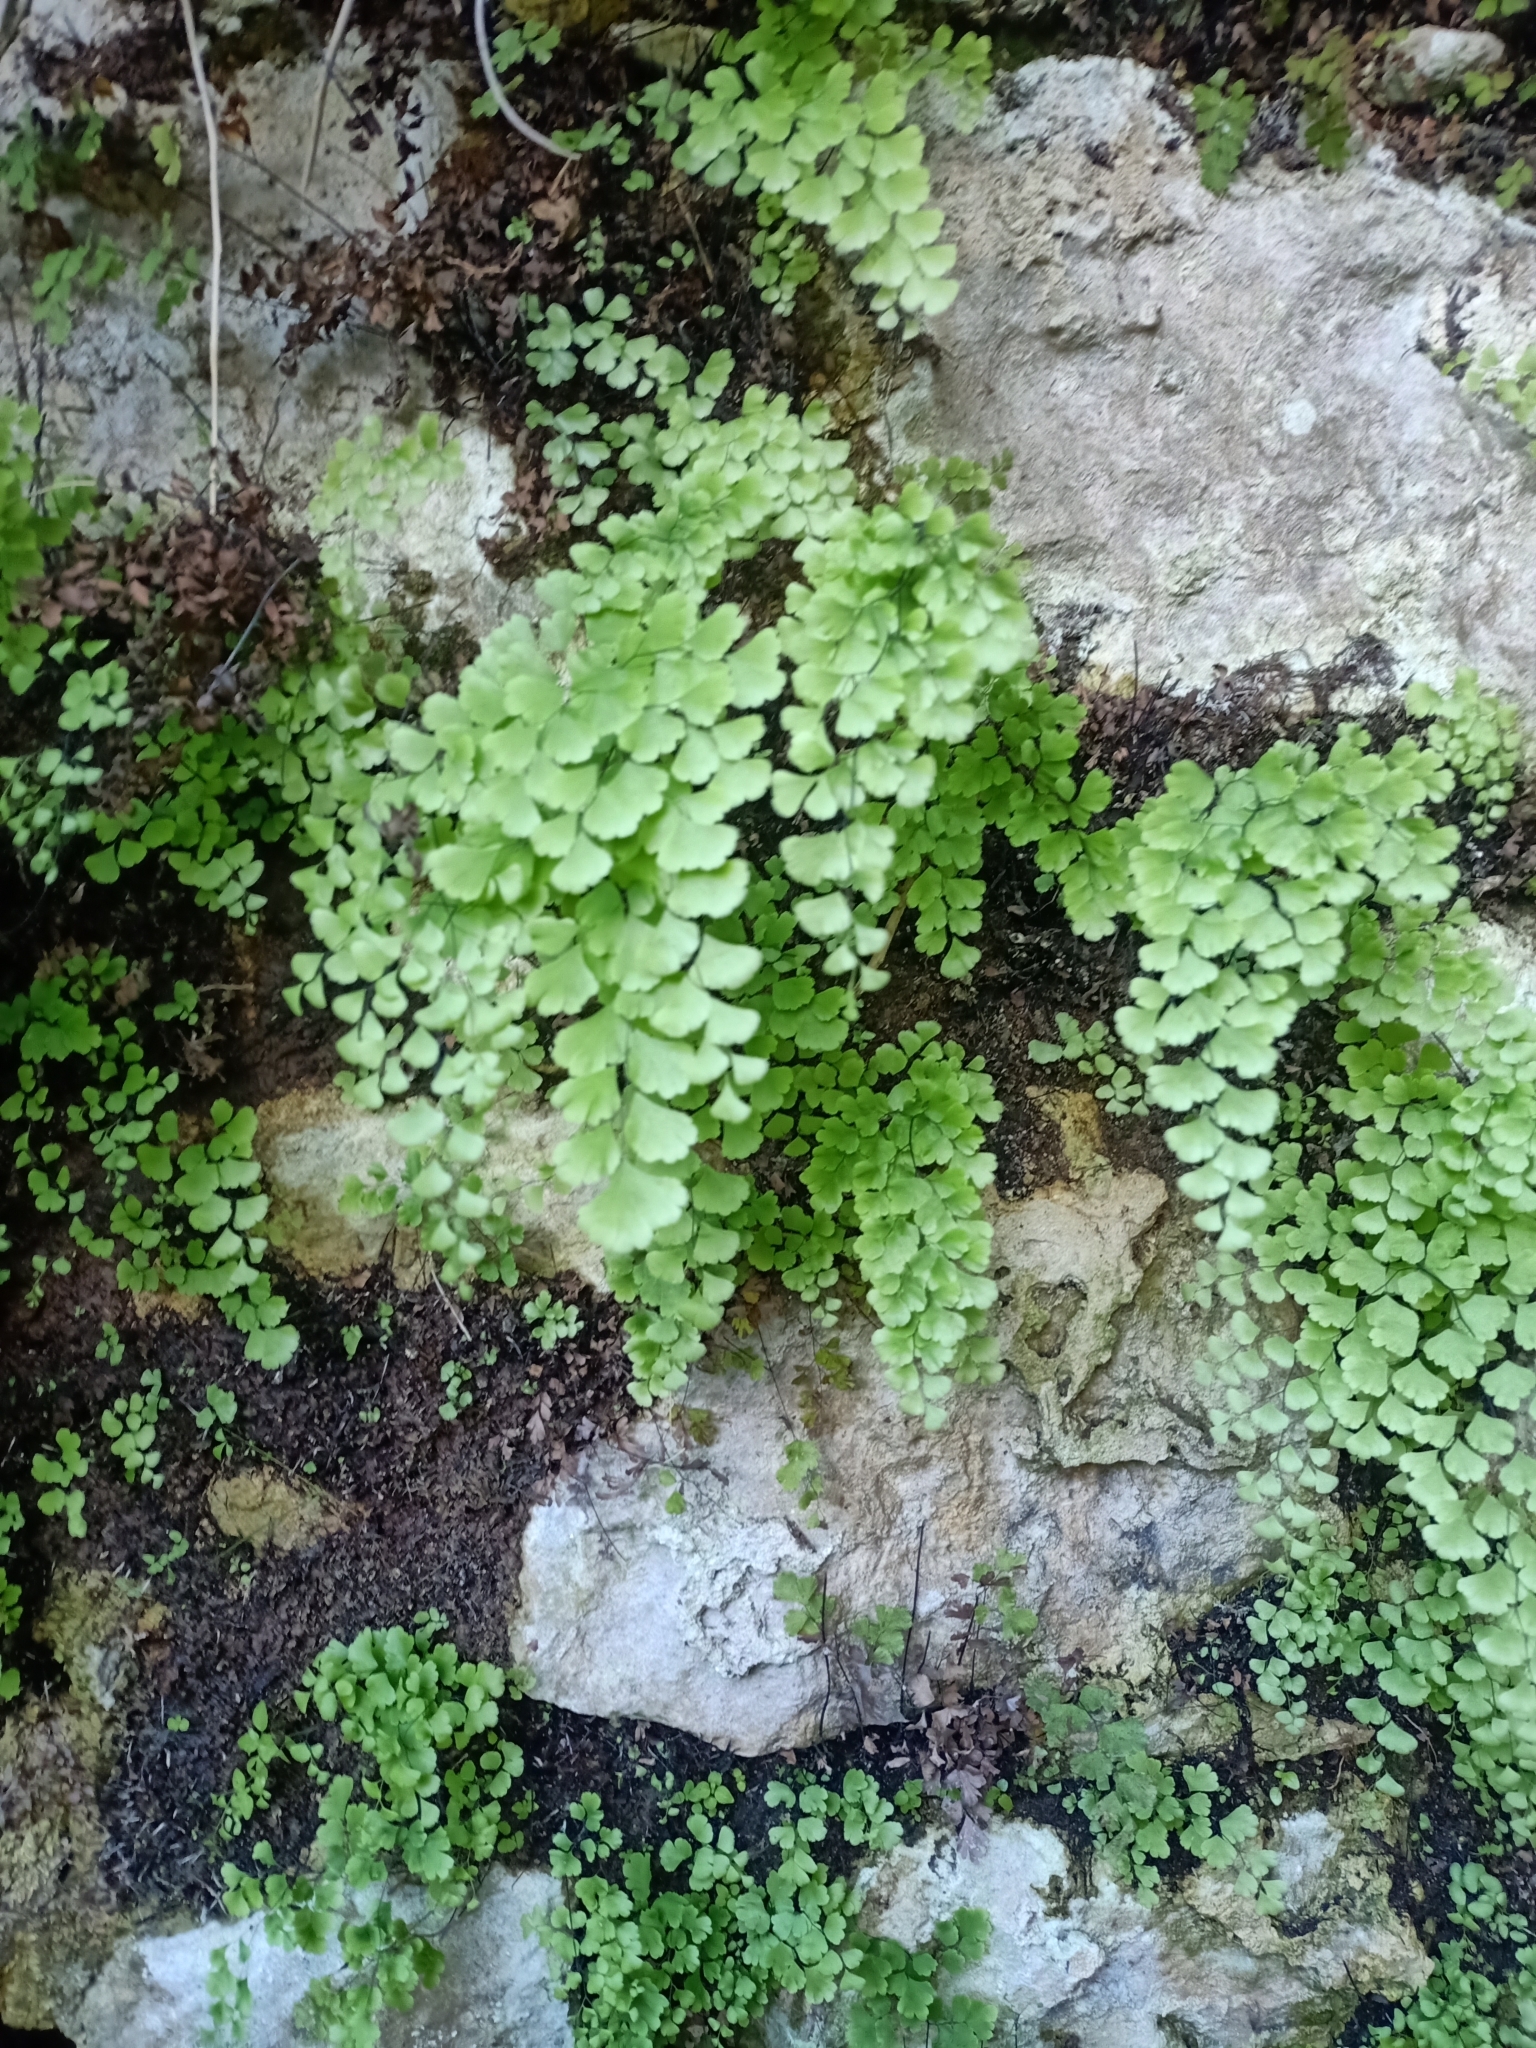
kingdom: Plantae
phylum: Tracheophyta
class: Polypodiopsida
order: Polypodiales
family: Pteridaceae
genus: Adiantum
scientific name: Adiantum capillus-veneris
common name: Maidenhair fern
